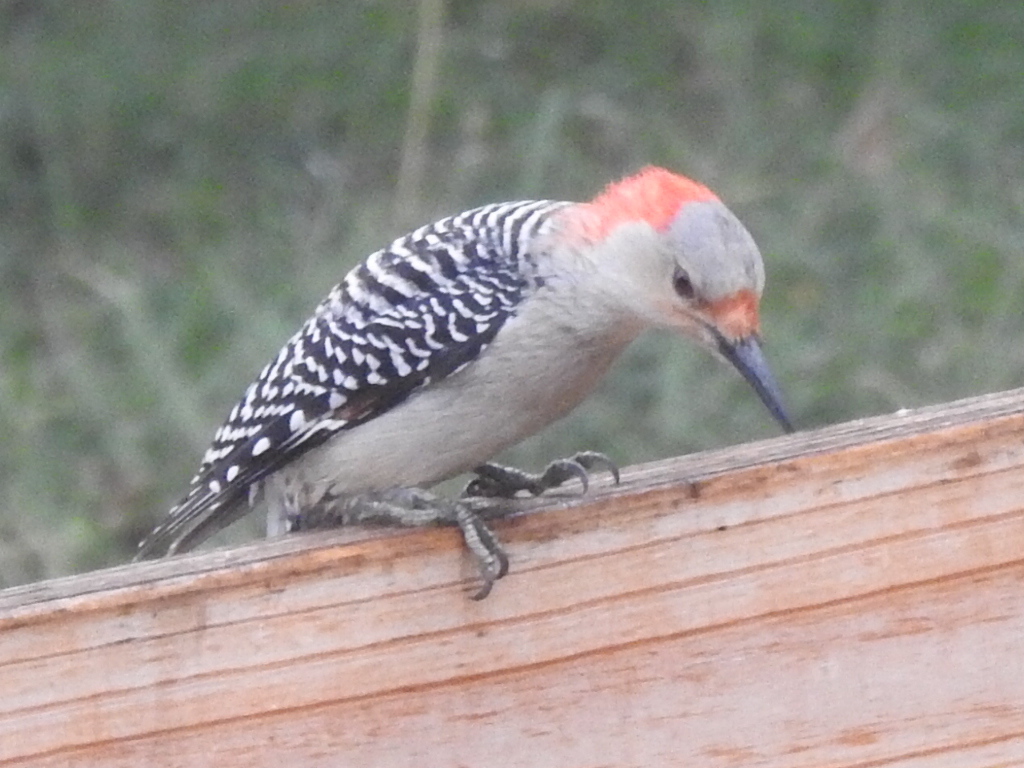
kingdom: Animalia
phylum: Chordata
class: Aves
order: Piciformes
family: Picidae
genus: Melanerpes
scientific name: Melanerpes carolinus
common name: Red-bellied woodpecker
